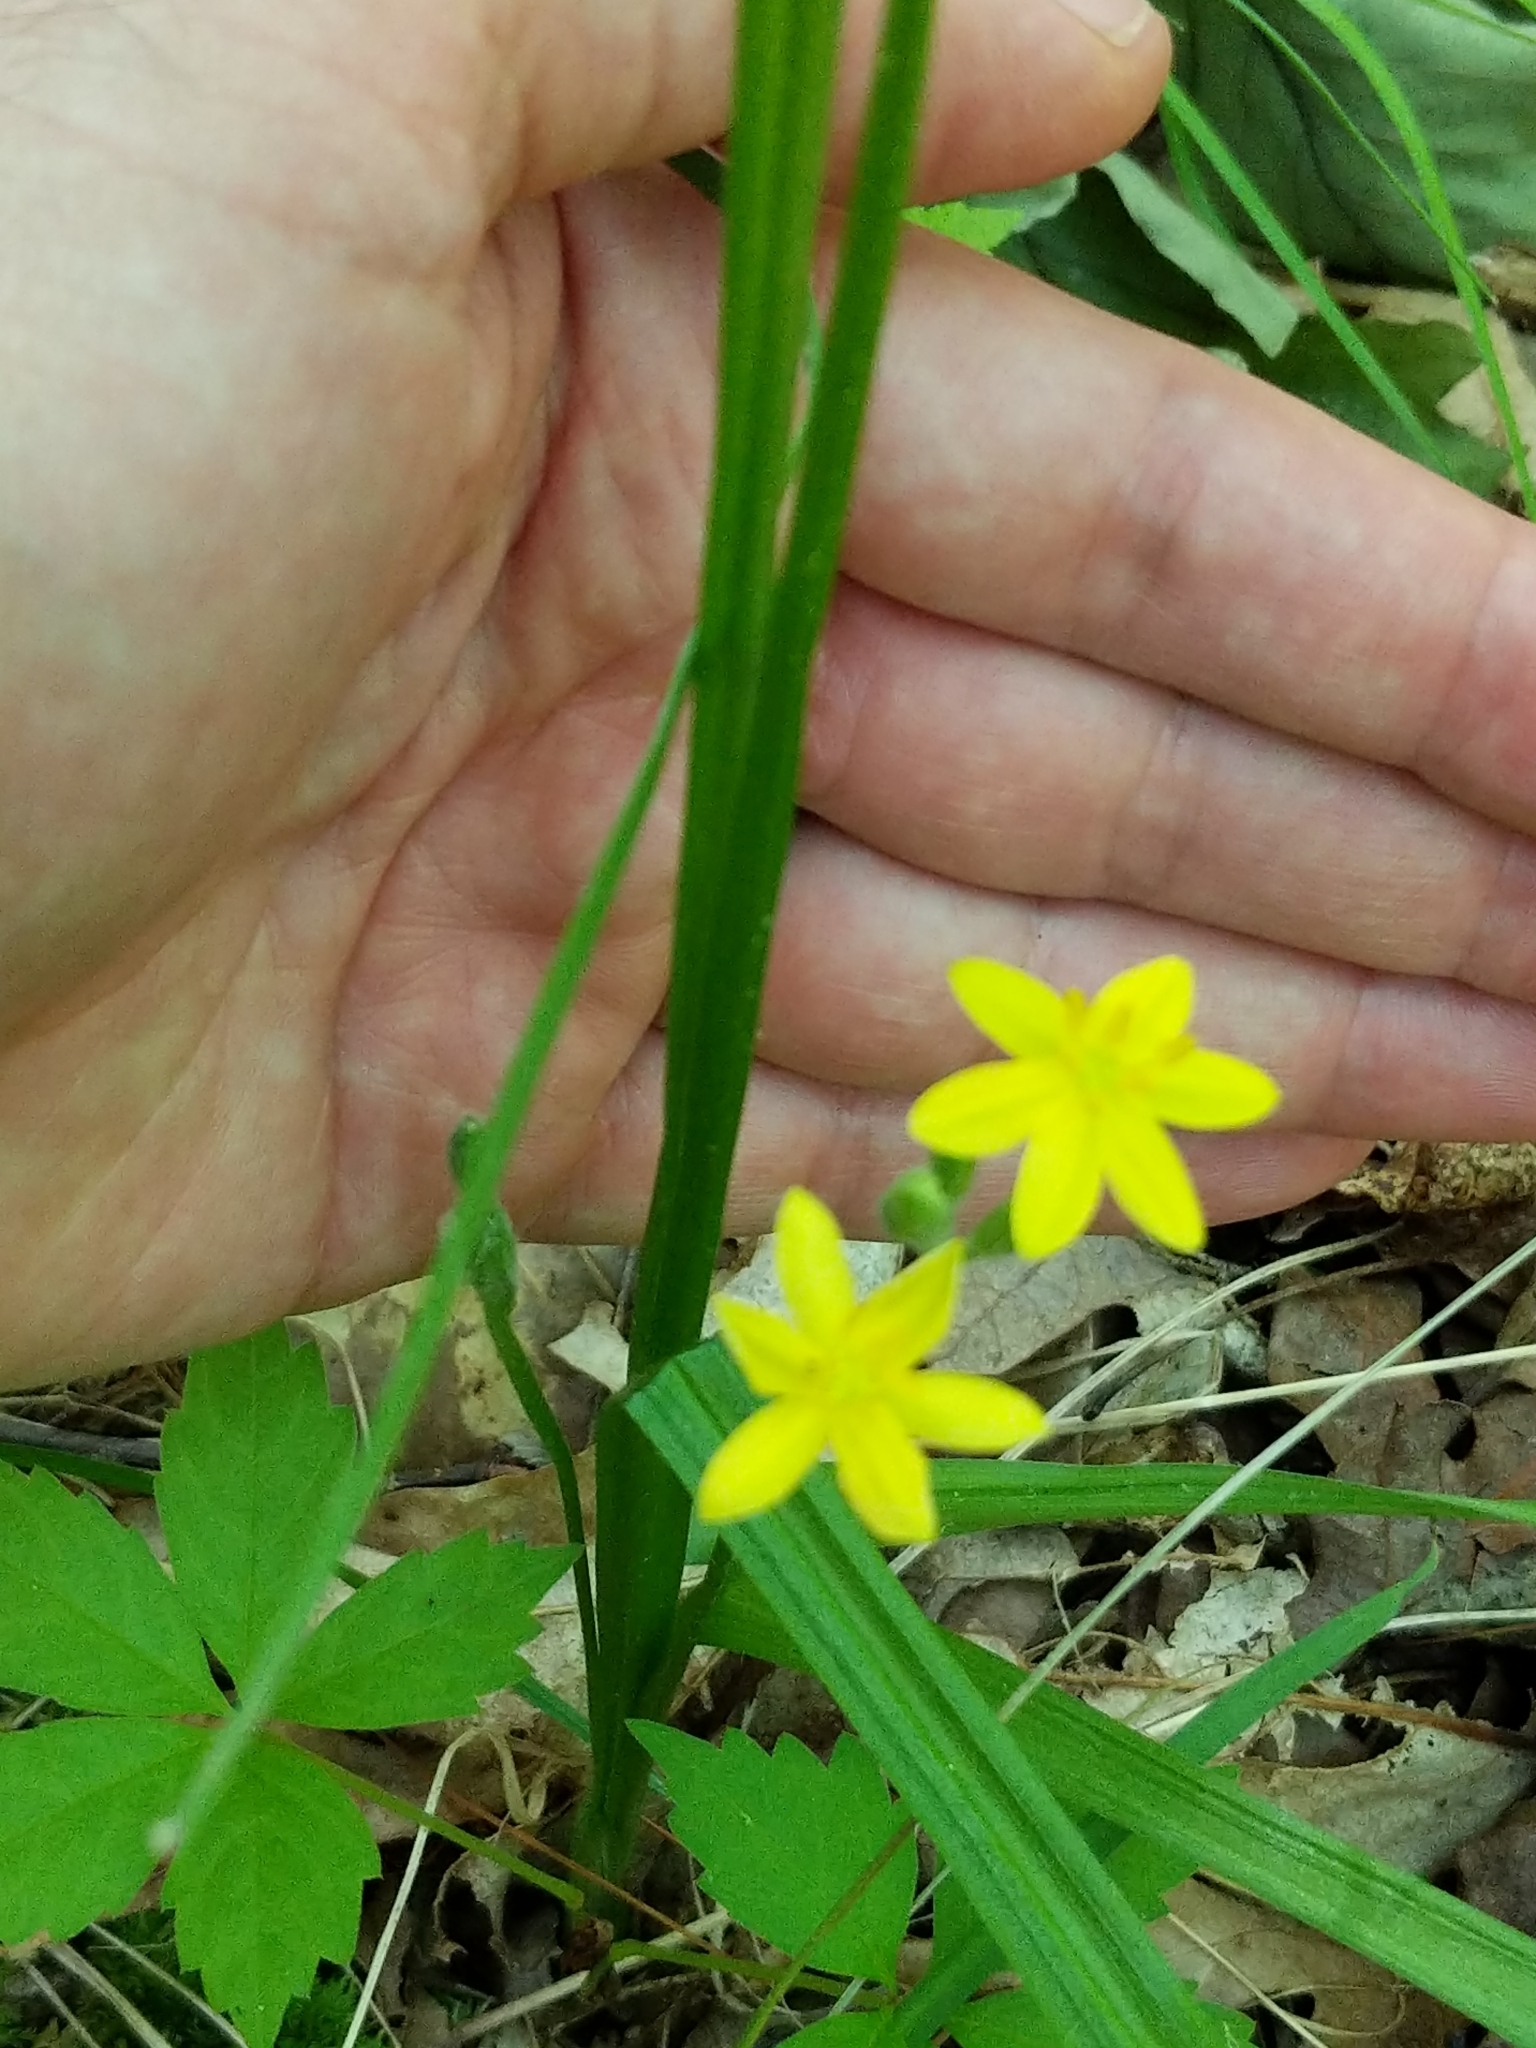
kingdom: Plantae
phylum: Tracheophyta
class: Liliopsida
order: Asparagales
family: Hypoxidaceae
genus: Hypoxis
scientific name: Hypoxis hirsuta
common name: Common goldstar
